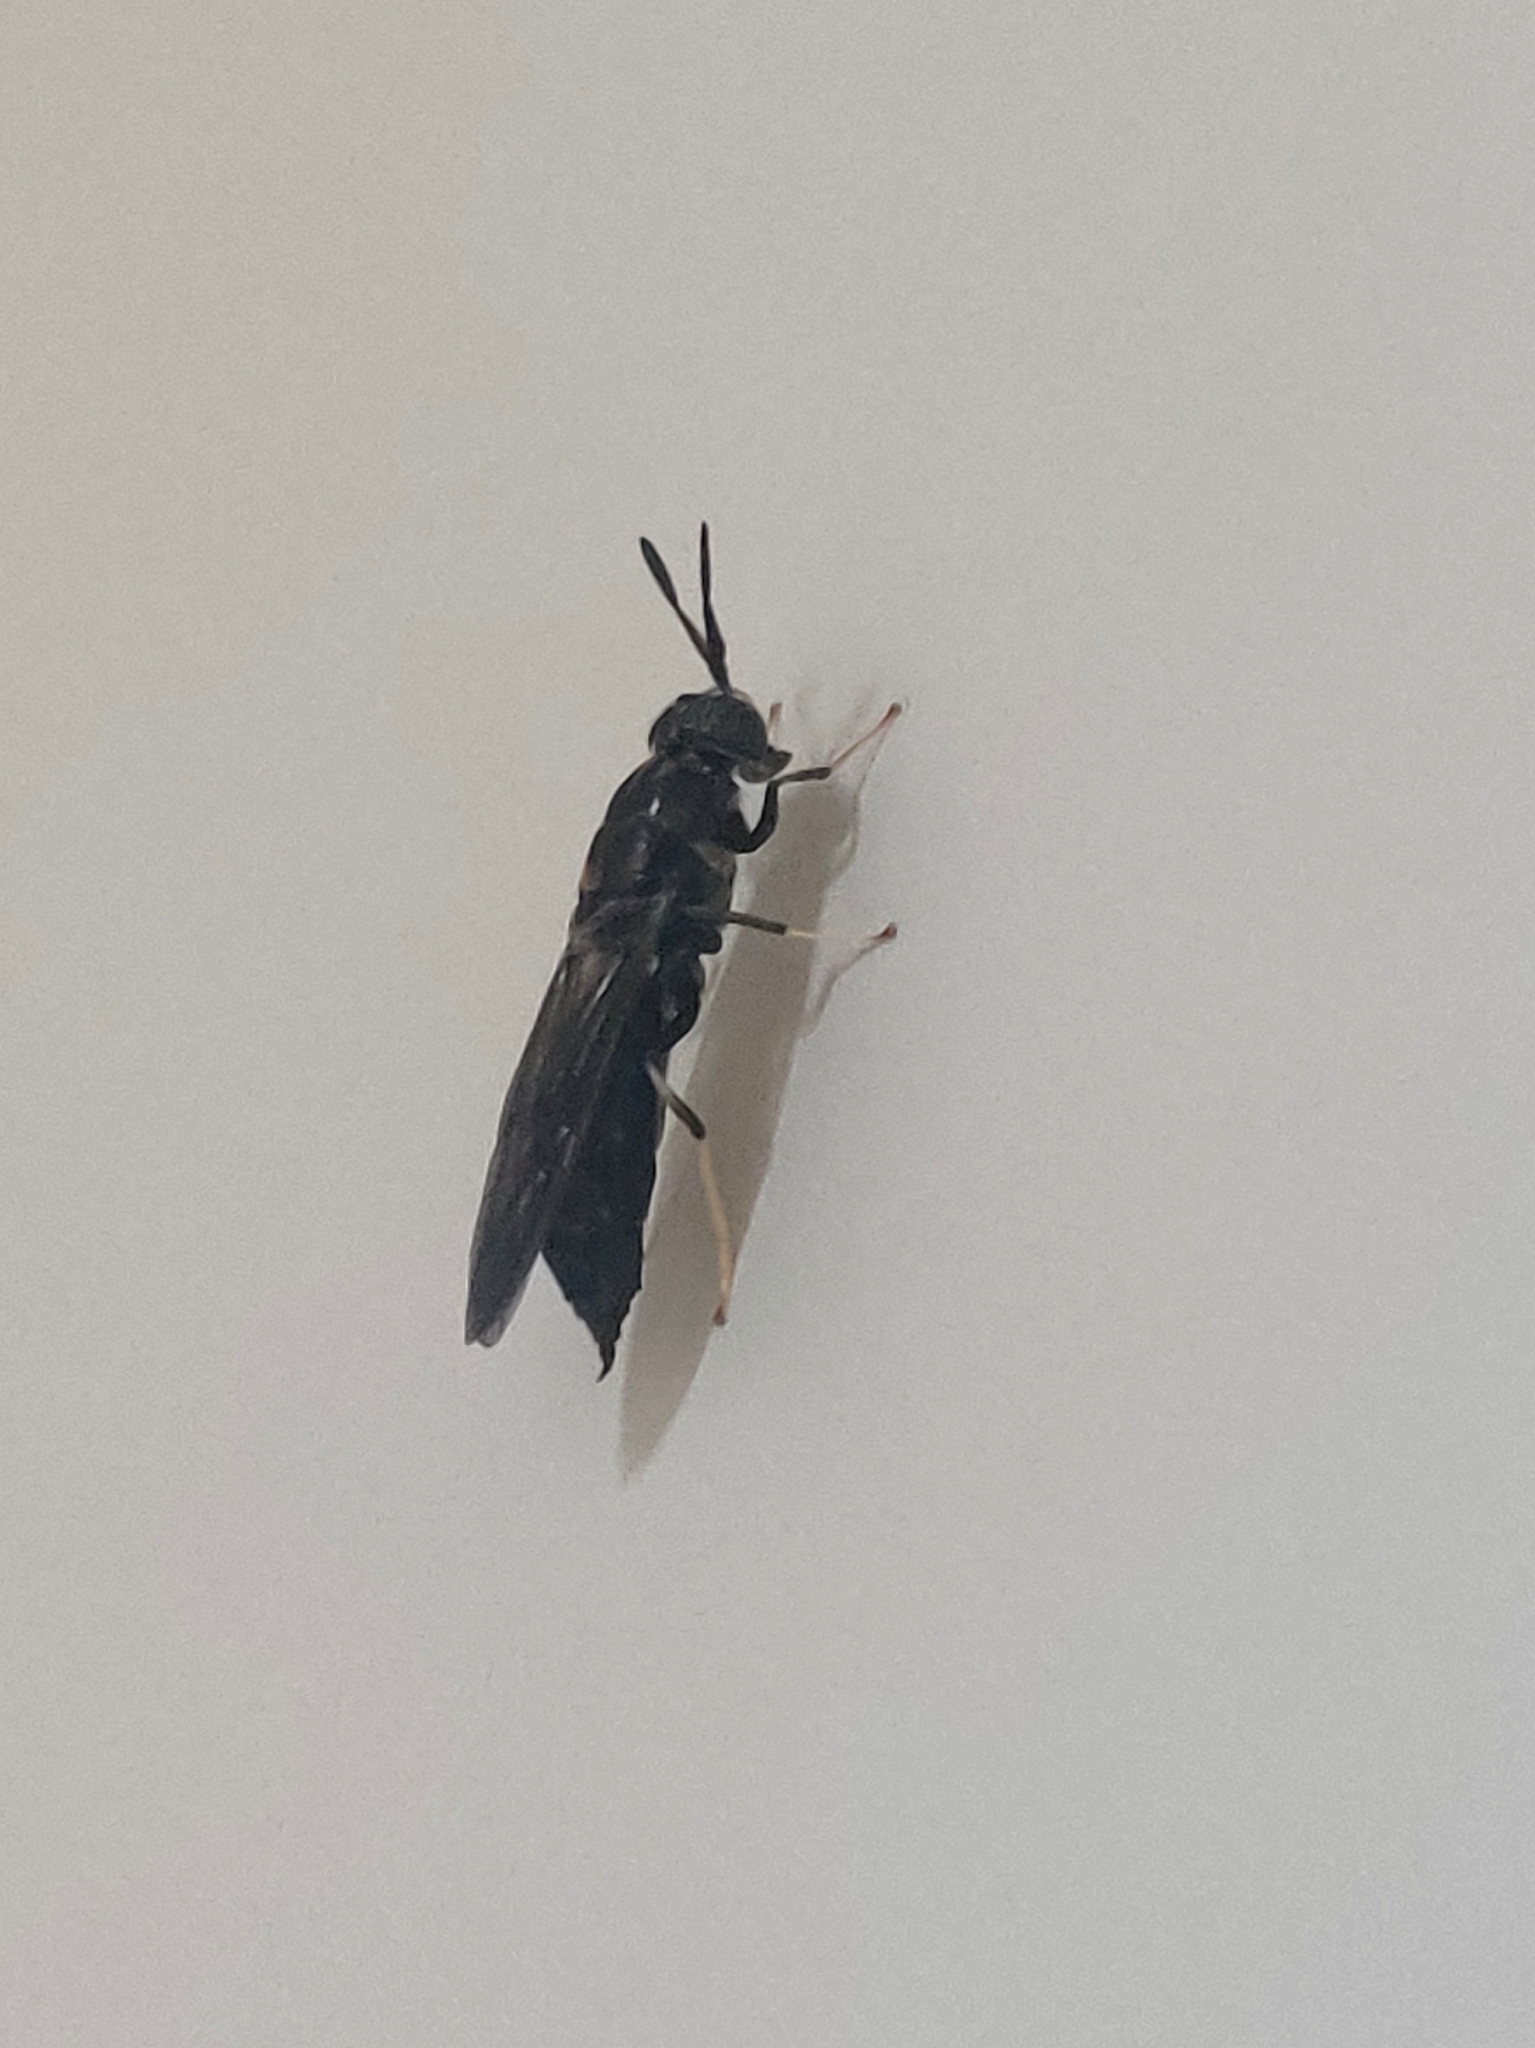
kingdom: Animalia
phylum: Arthropoda
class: Insecta
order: Diptera
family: Stratiomyidae
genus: Hermetia
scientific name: Hermetia illucens
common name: Black soldier fly
